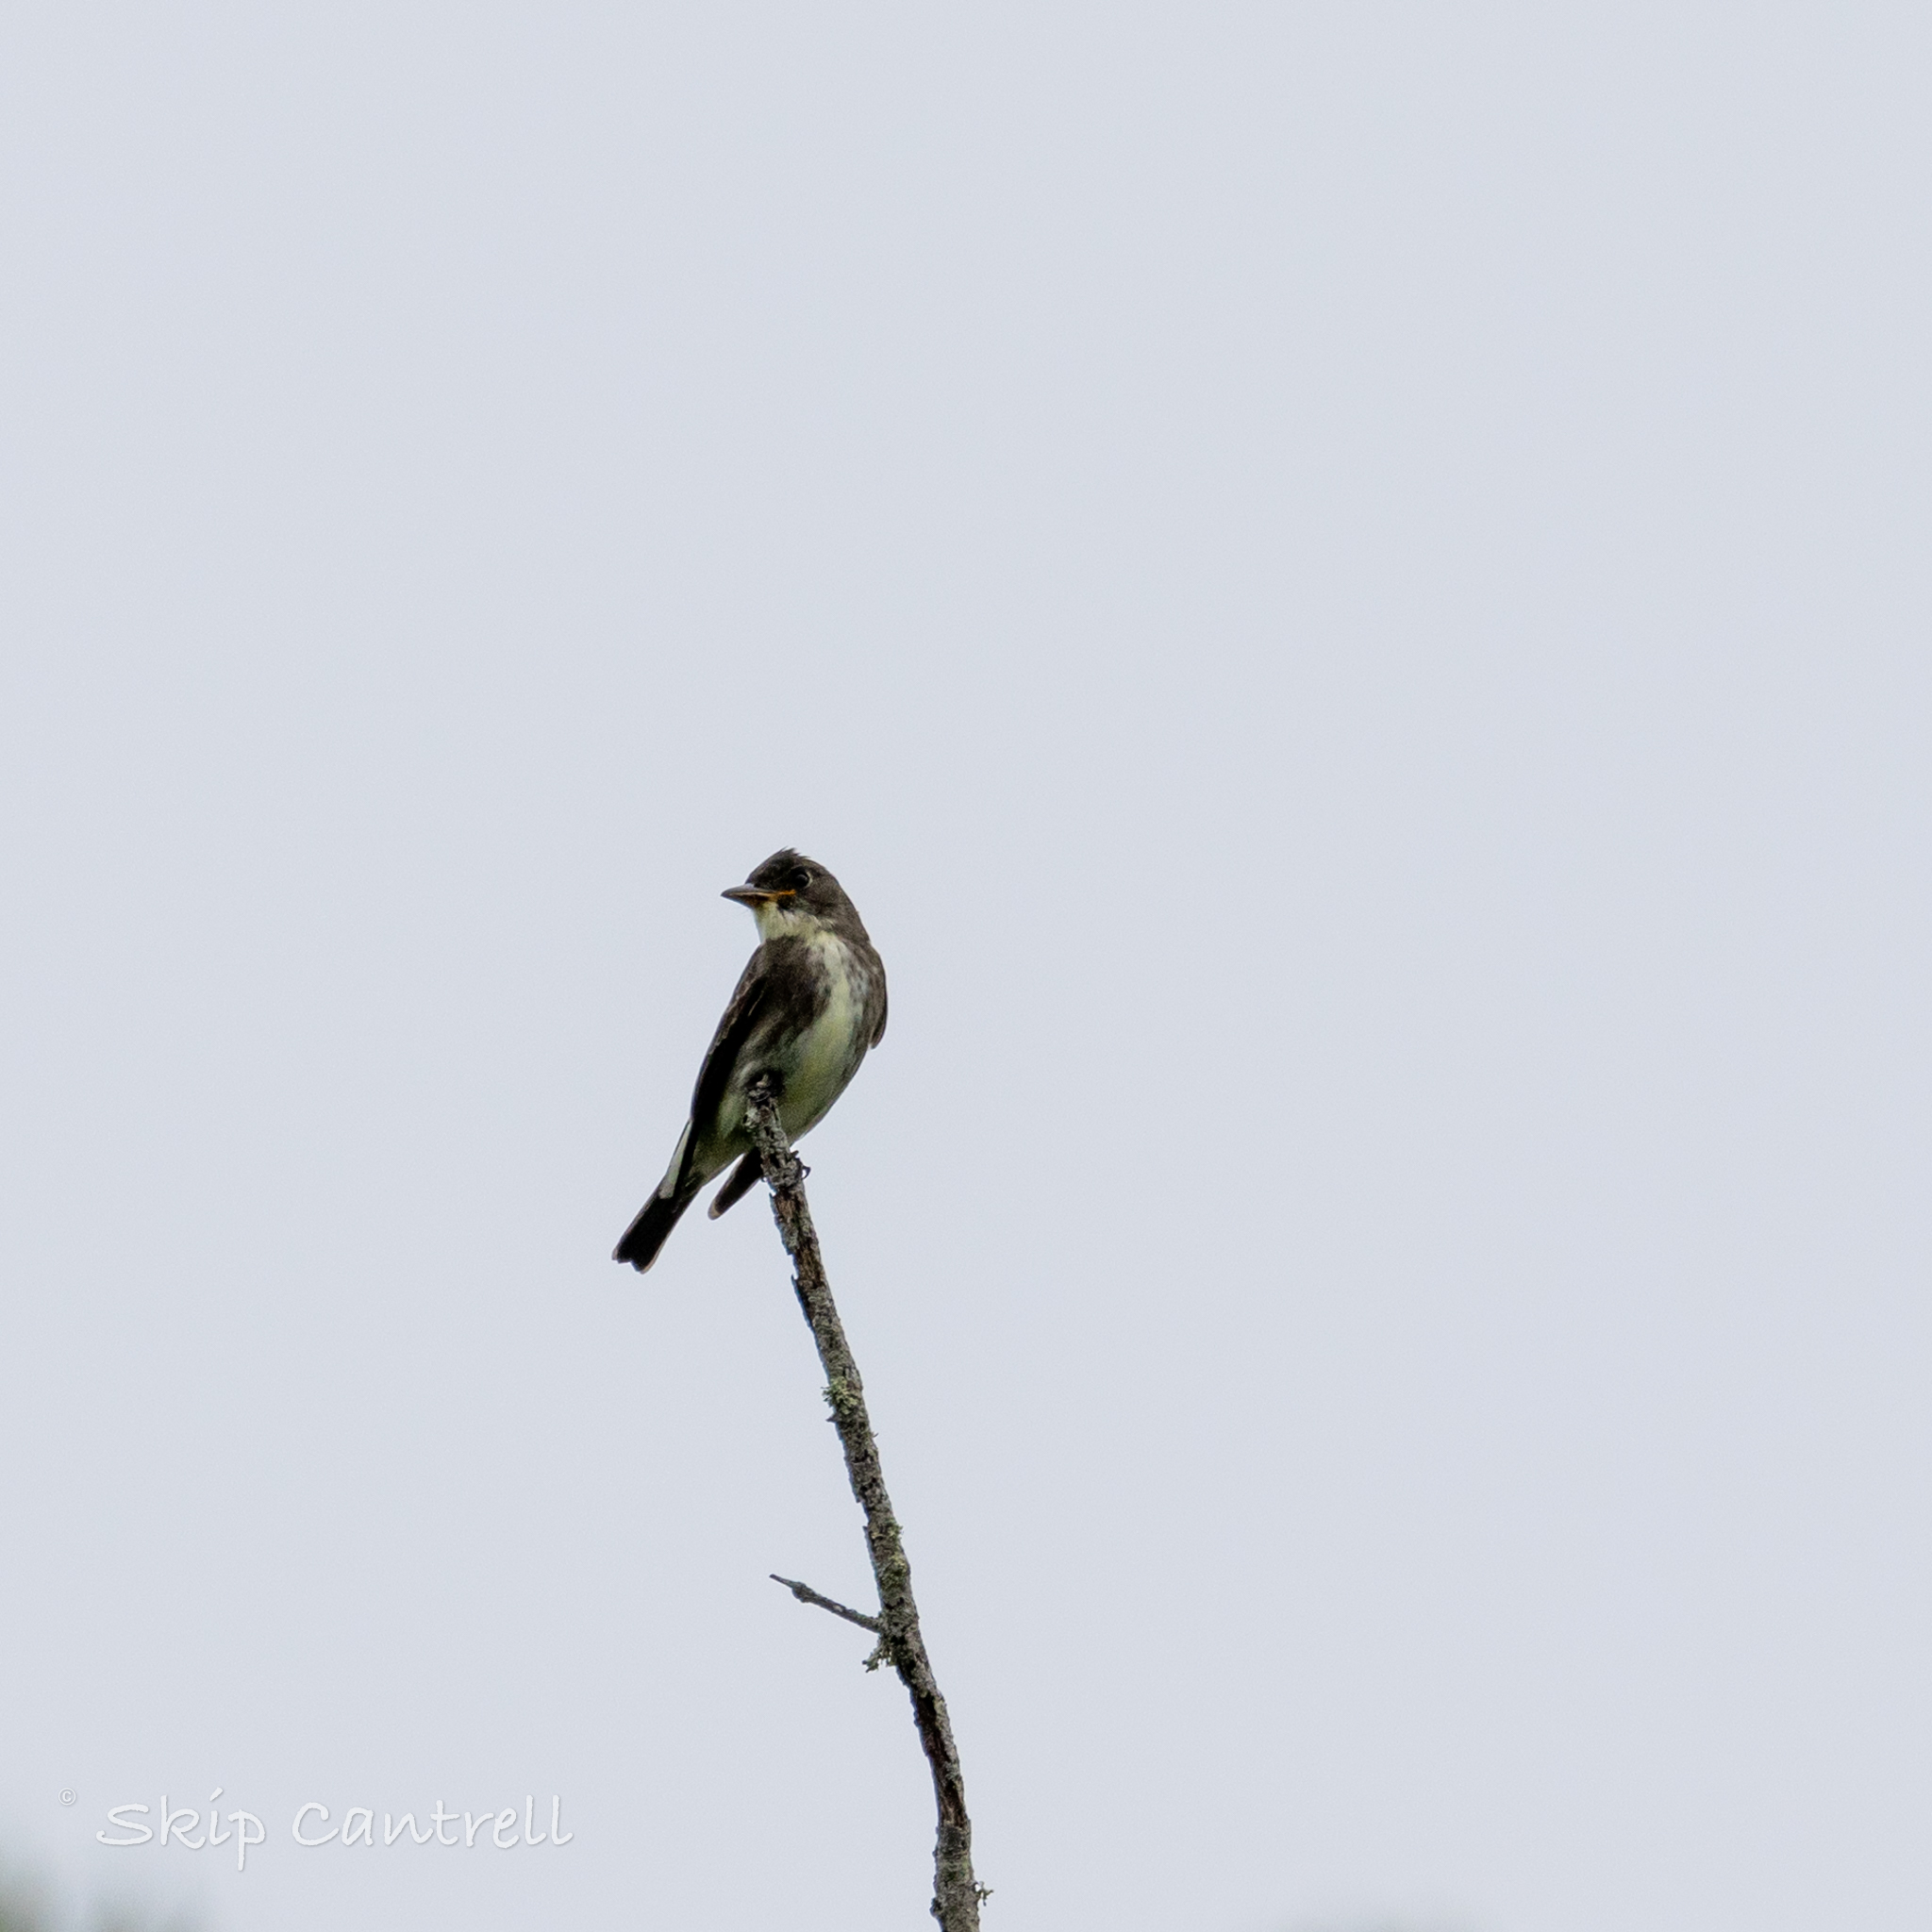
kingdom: Animalia
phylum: Chordata
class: Aves
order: Passeriformes
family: Tyrannidae
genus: Contopus
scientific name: Contopus cooperi
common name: Olive-sided flycatcher
